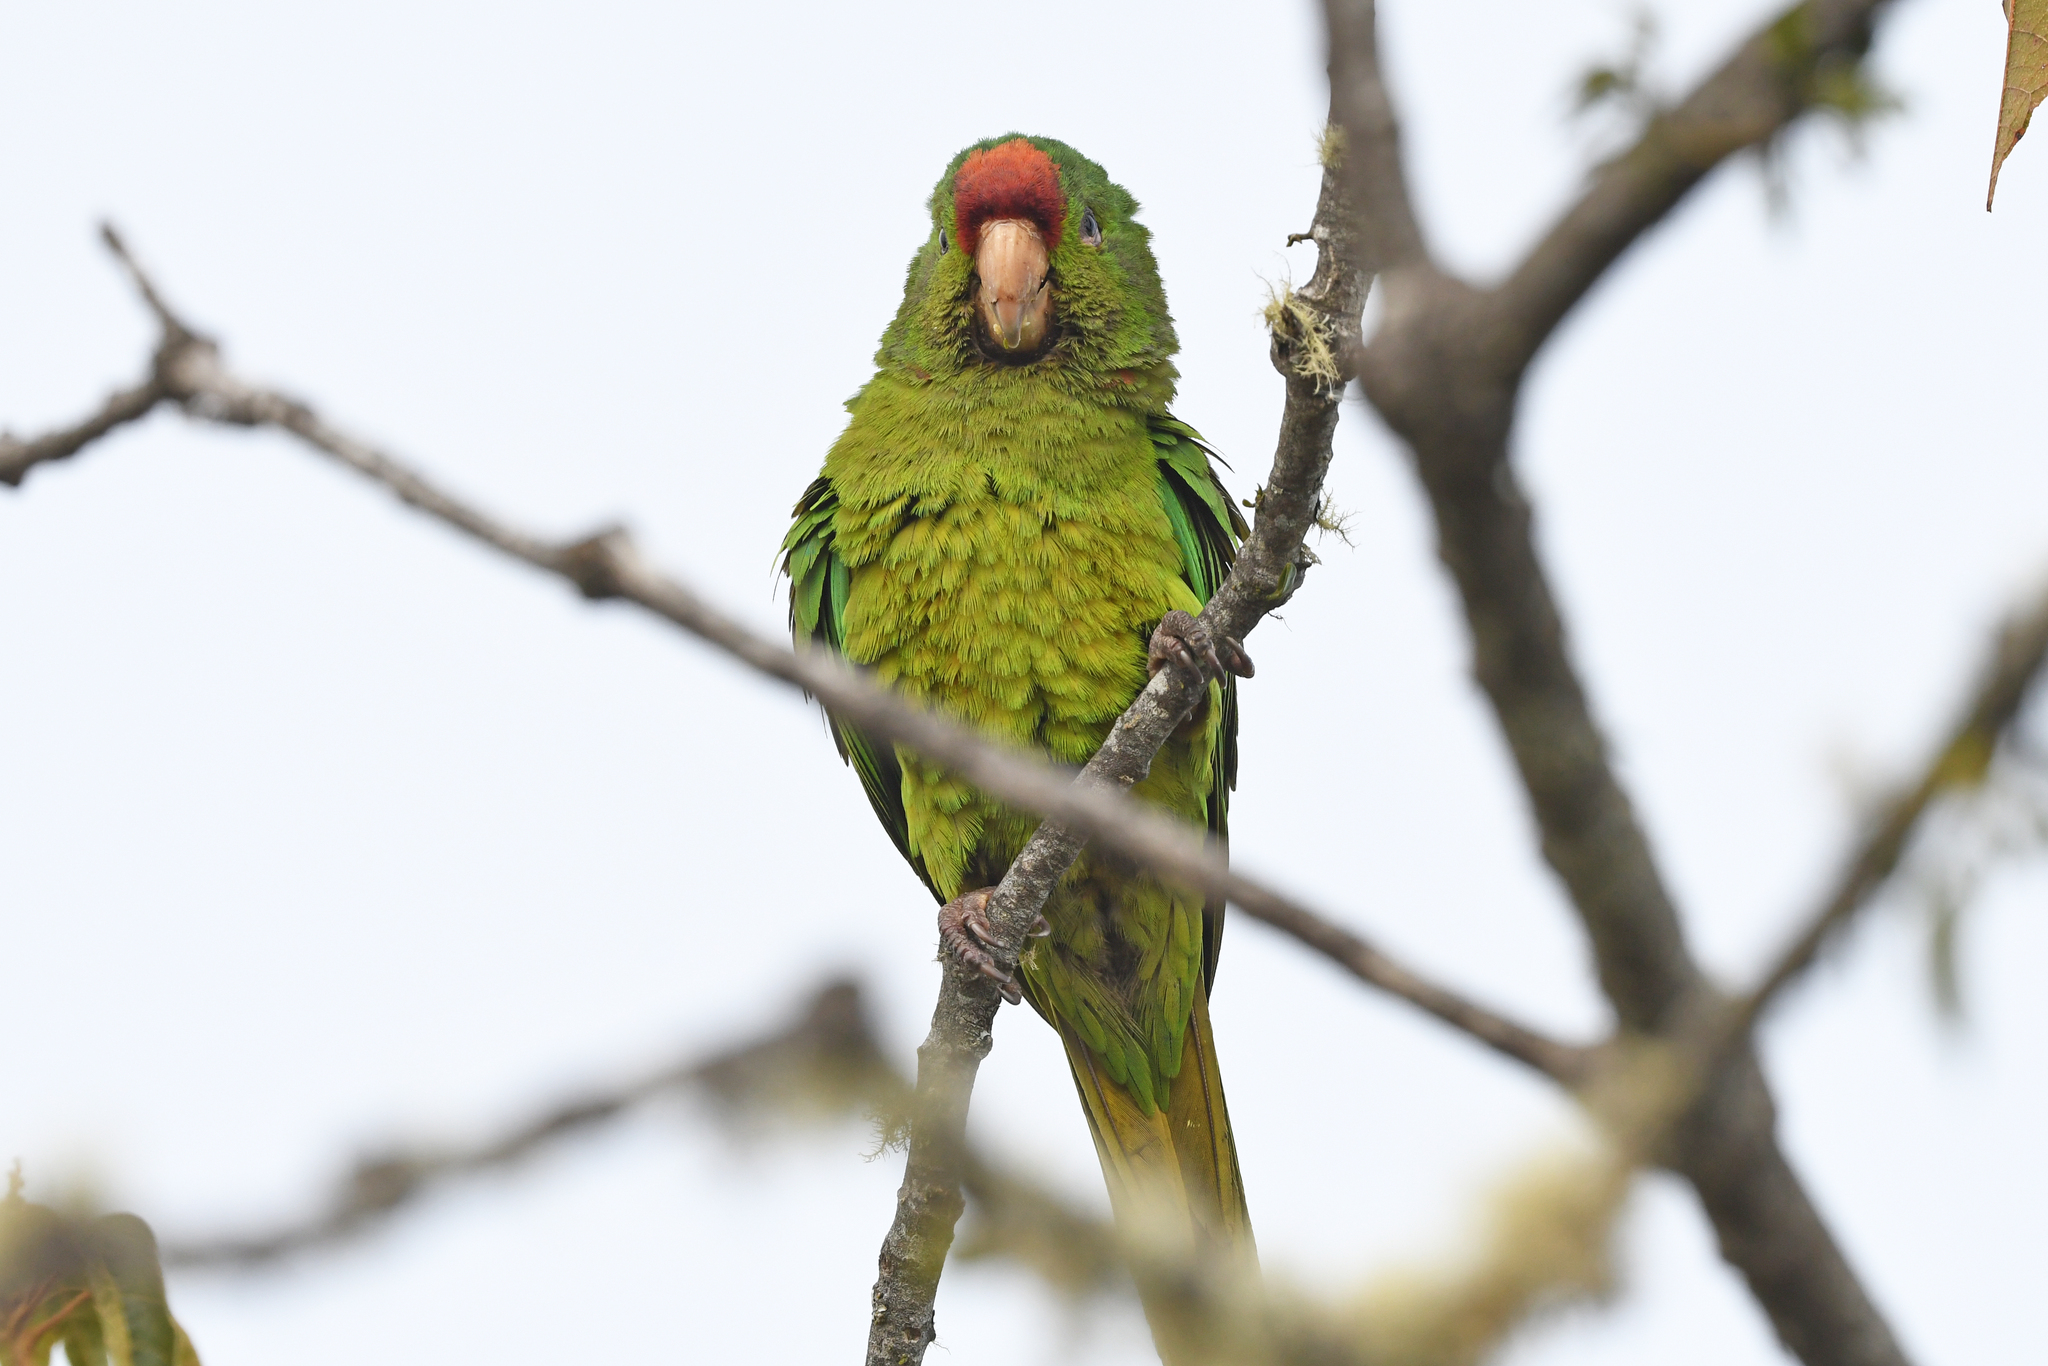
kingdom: Animalia
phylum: Chordata
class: Aves
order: Psittaciformes
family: Psittacidae
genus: Aratinga
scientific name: Aratinga wagleri
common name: Scarlet-fronted parakeet
